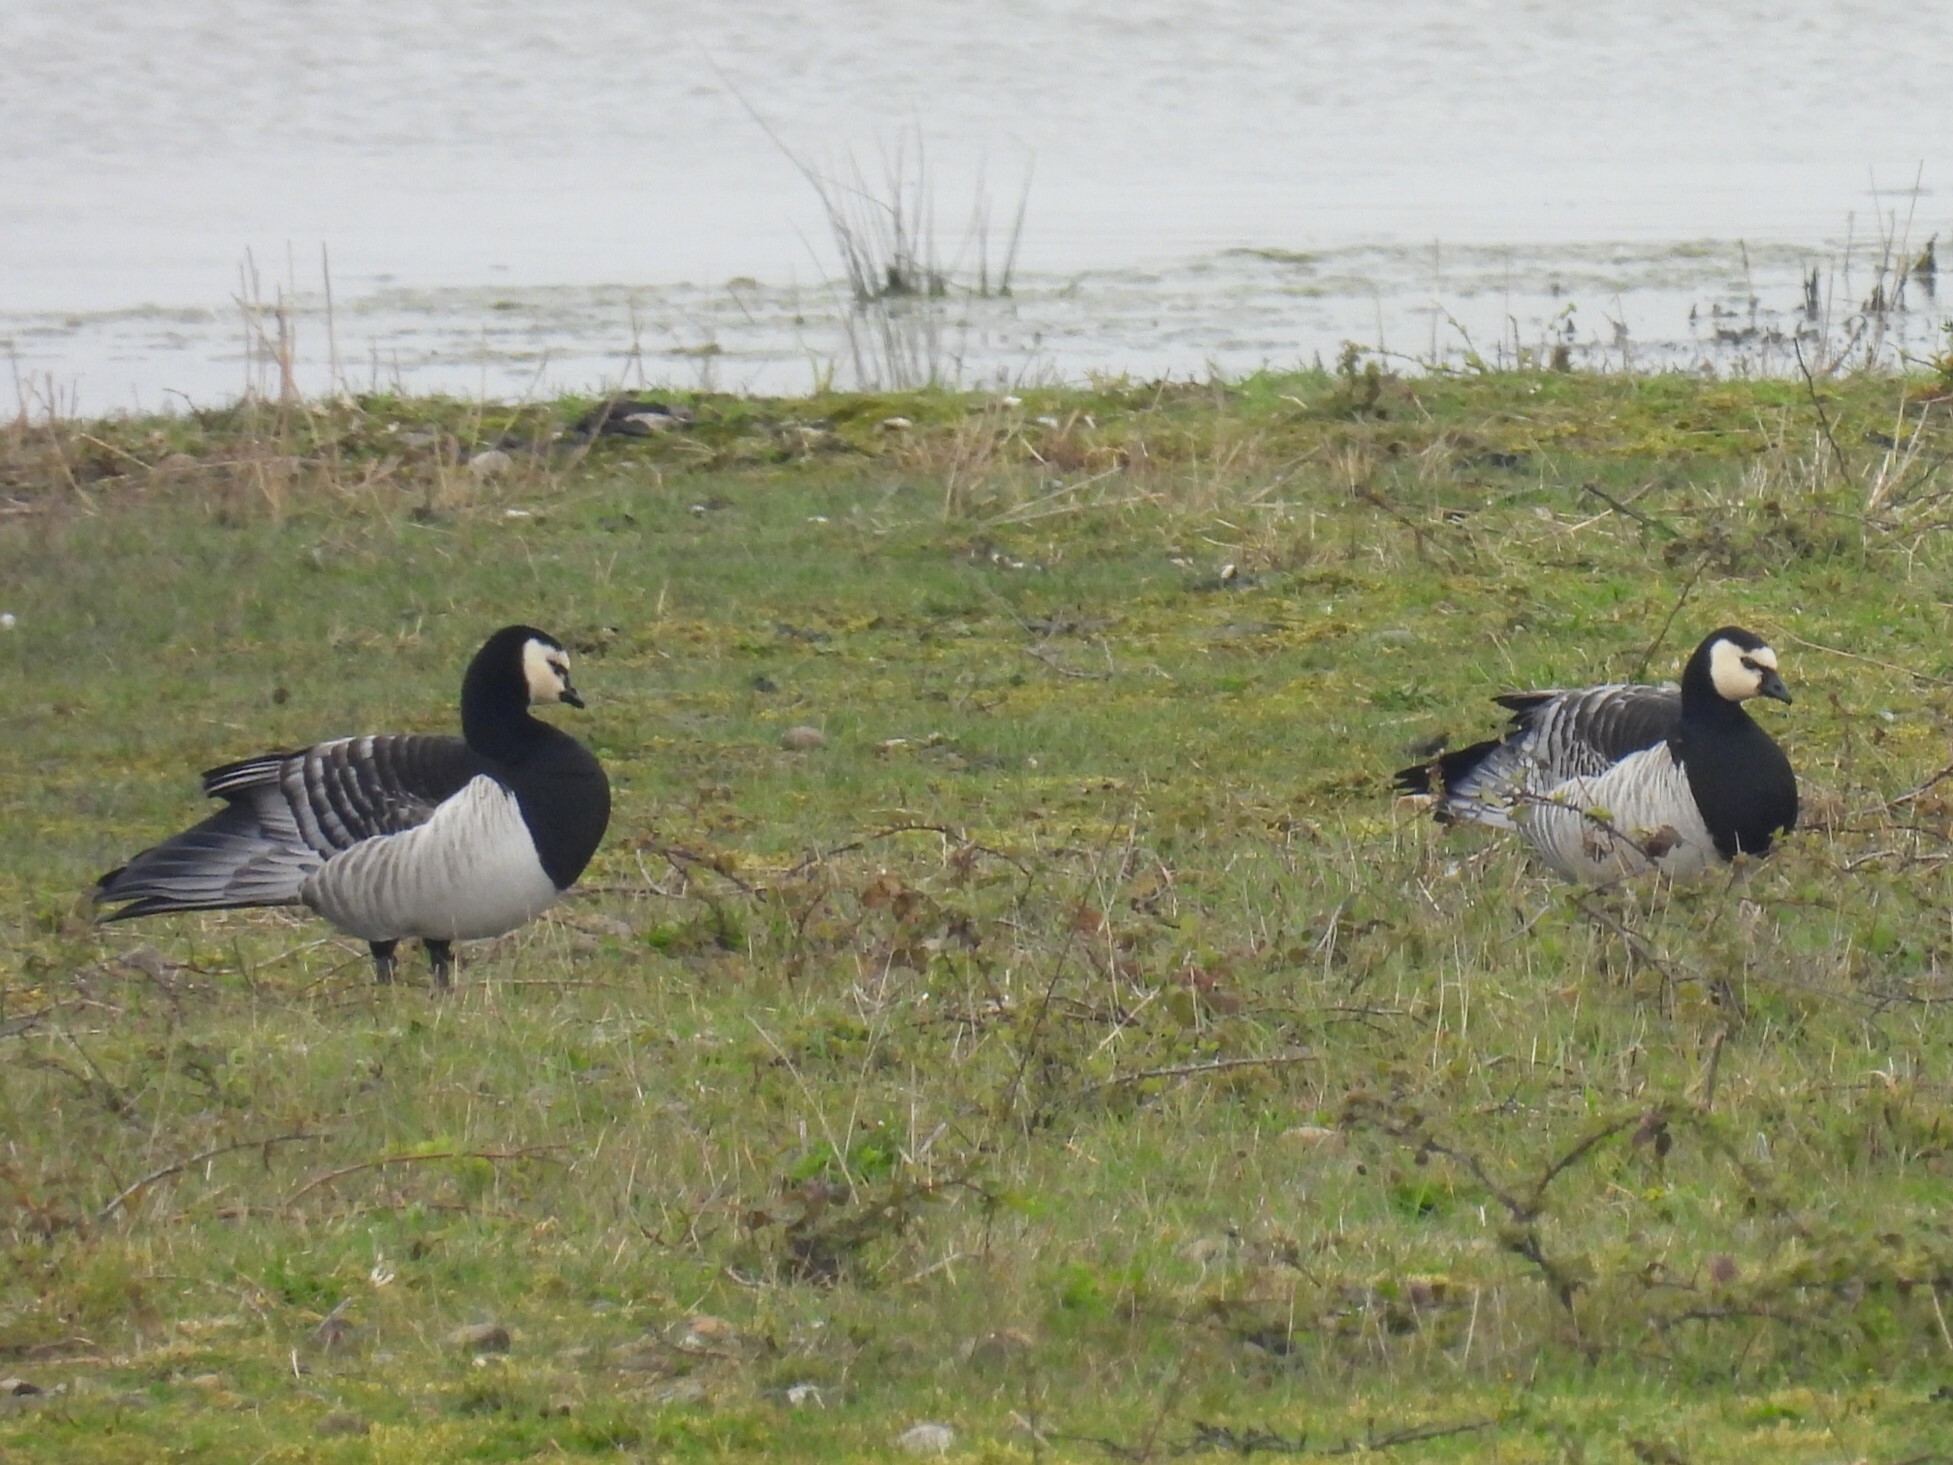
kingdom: Animalia
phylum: Chordata
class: Aves
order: Anseriformes
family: Anatidae
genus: Branta
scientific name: Branta leucopsis
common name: Barnacle goose
